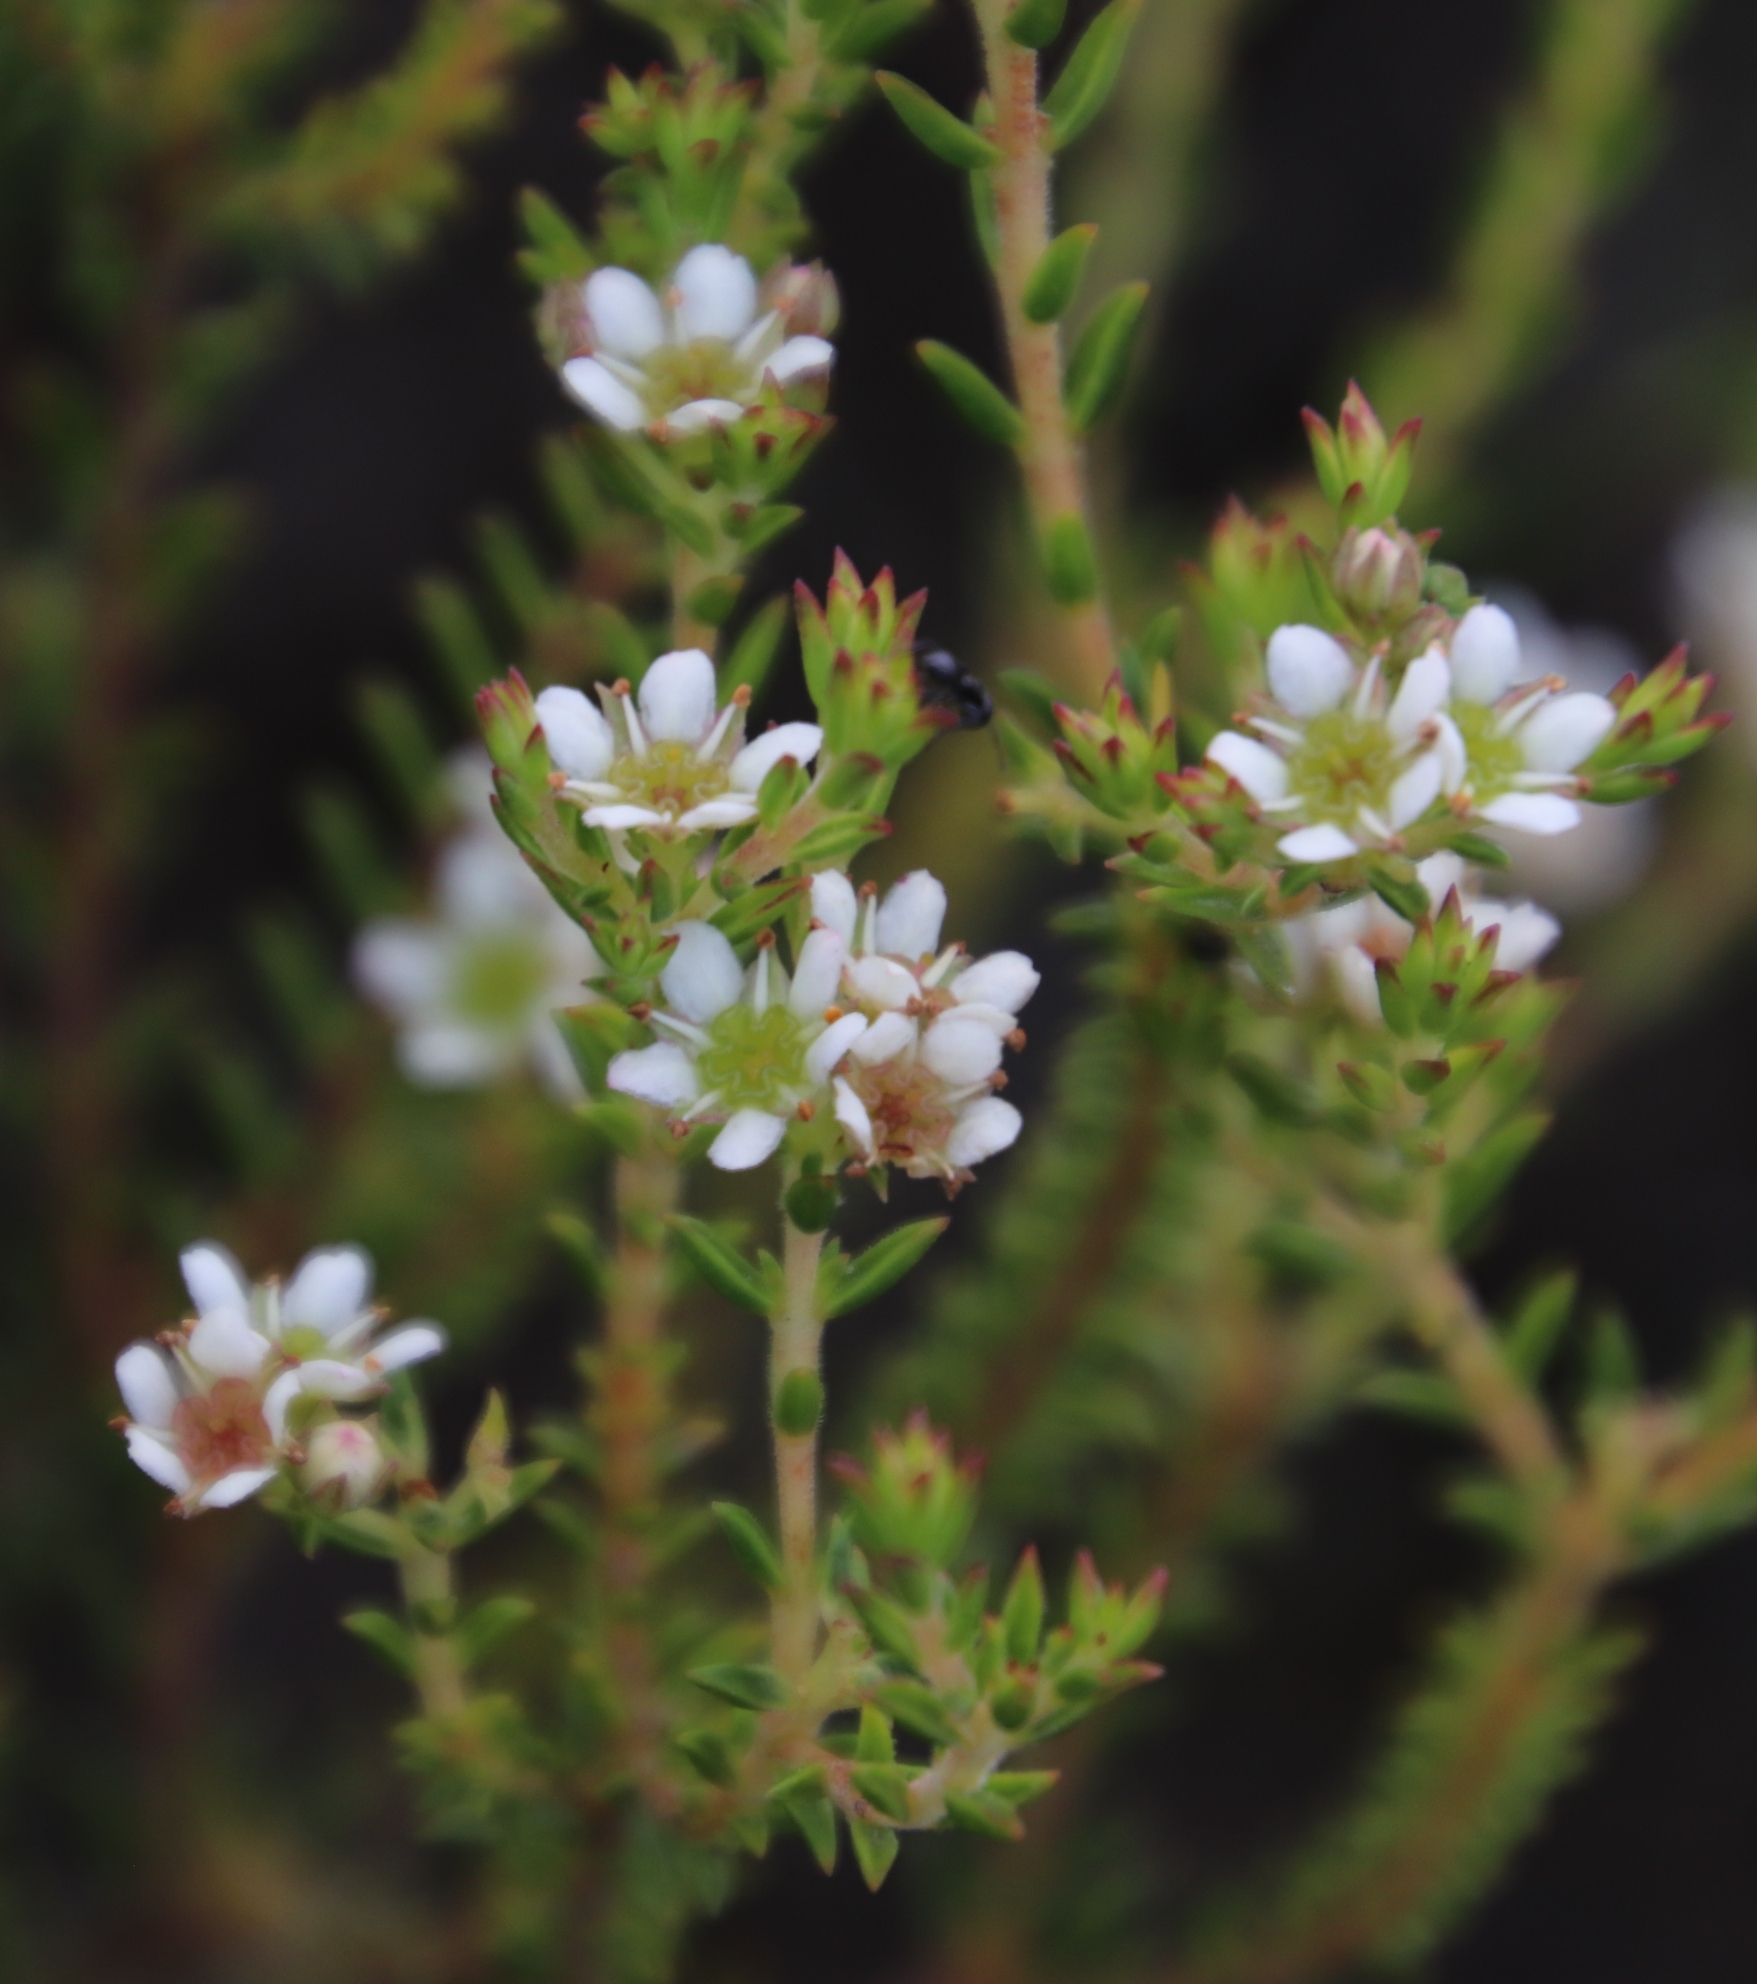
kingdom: Plantae
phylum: Tracheophyta
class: Magnoliopsida
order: Sapindales
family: Rutaceae
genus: Diosma
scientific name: Diosma oppositifolia
